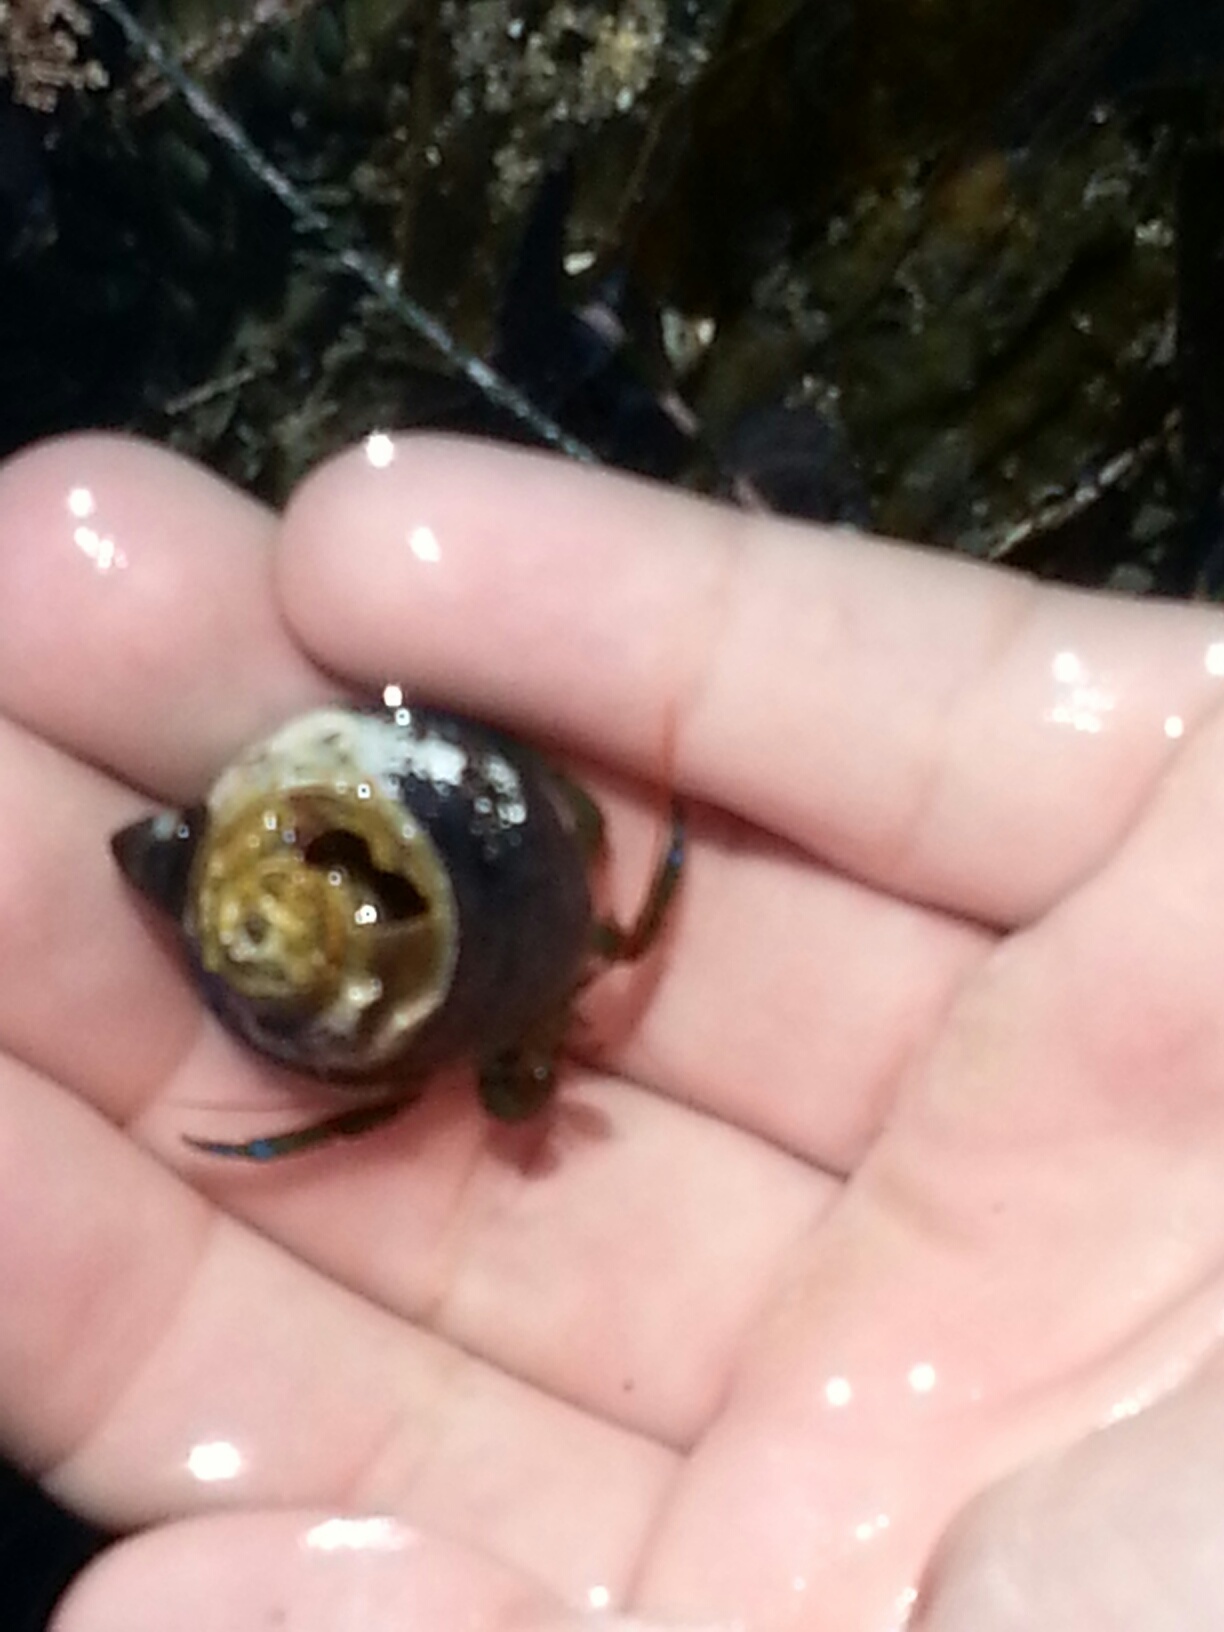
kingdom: Animalia
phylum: Arthropoda
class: Malacostraca
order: Decapoda
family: Paguridae
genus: Pagurus
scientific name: Pagurus samuelis
